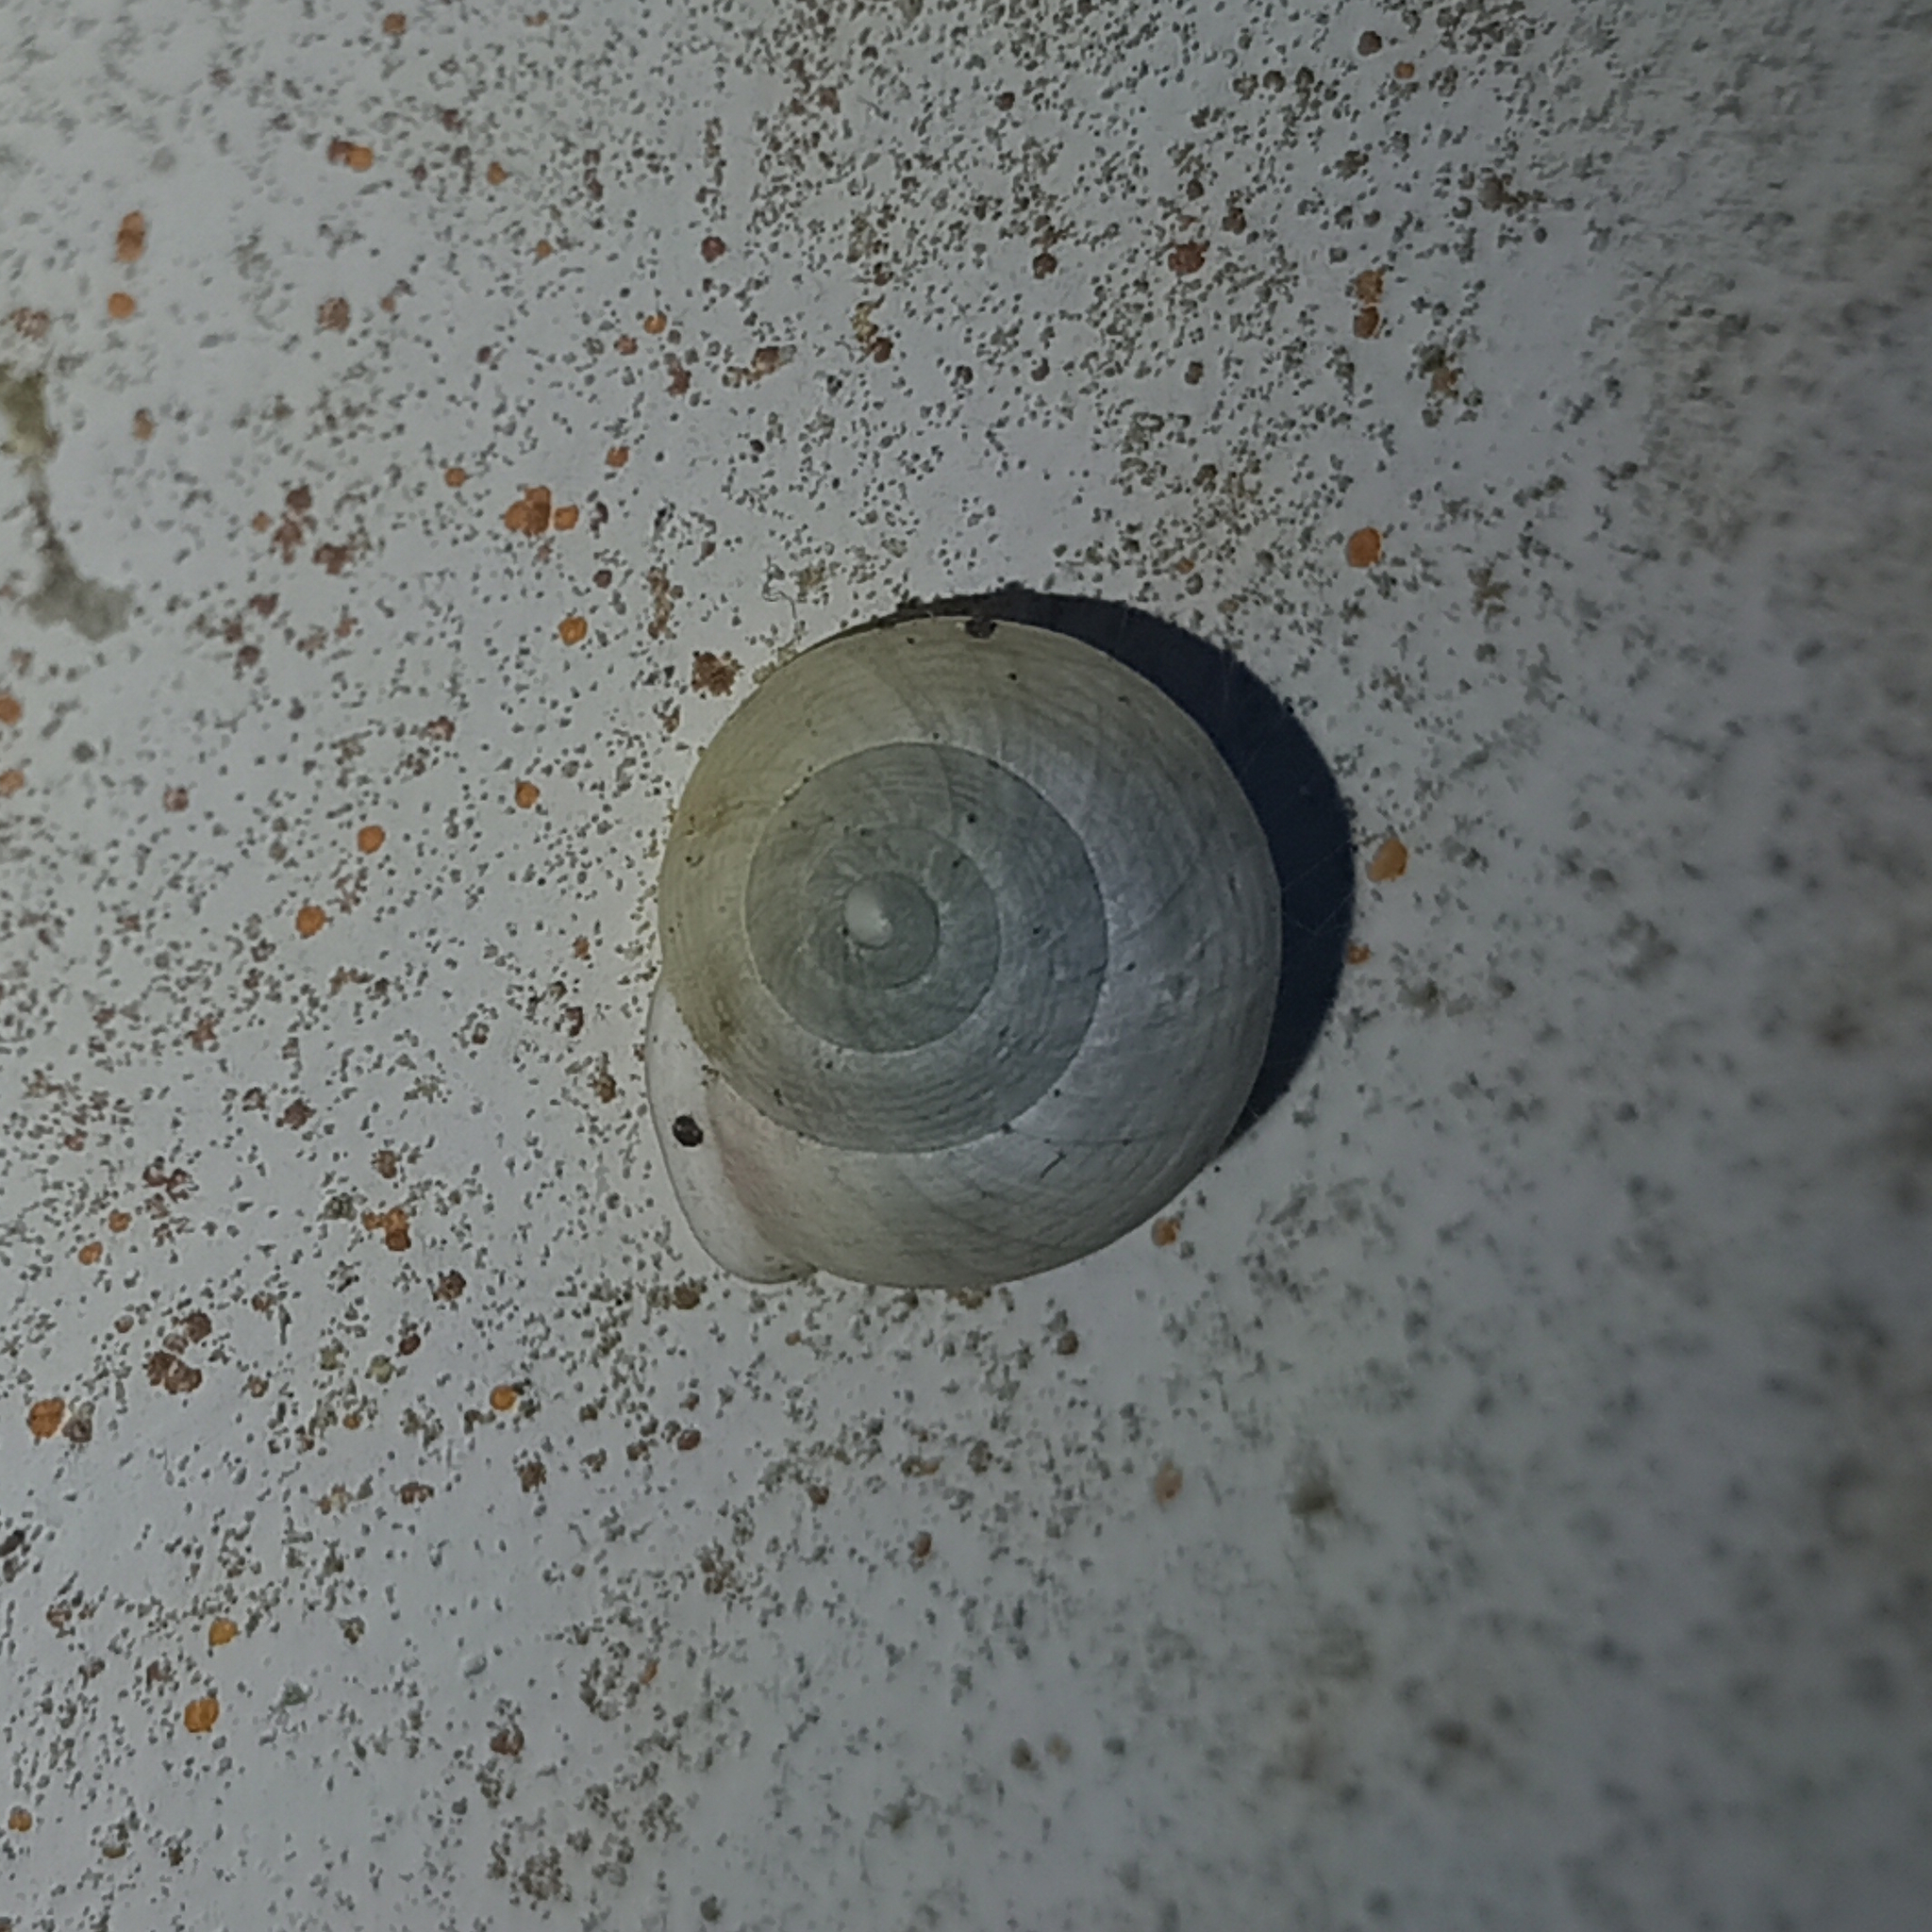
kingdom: Animalia
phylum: Mollusca
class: Gastropoda
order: Cycloneritida
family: Helicinidae
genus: Helicina
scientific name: Helicina boettgeri
